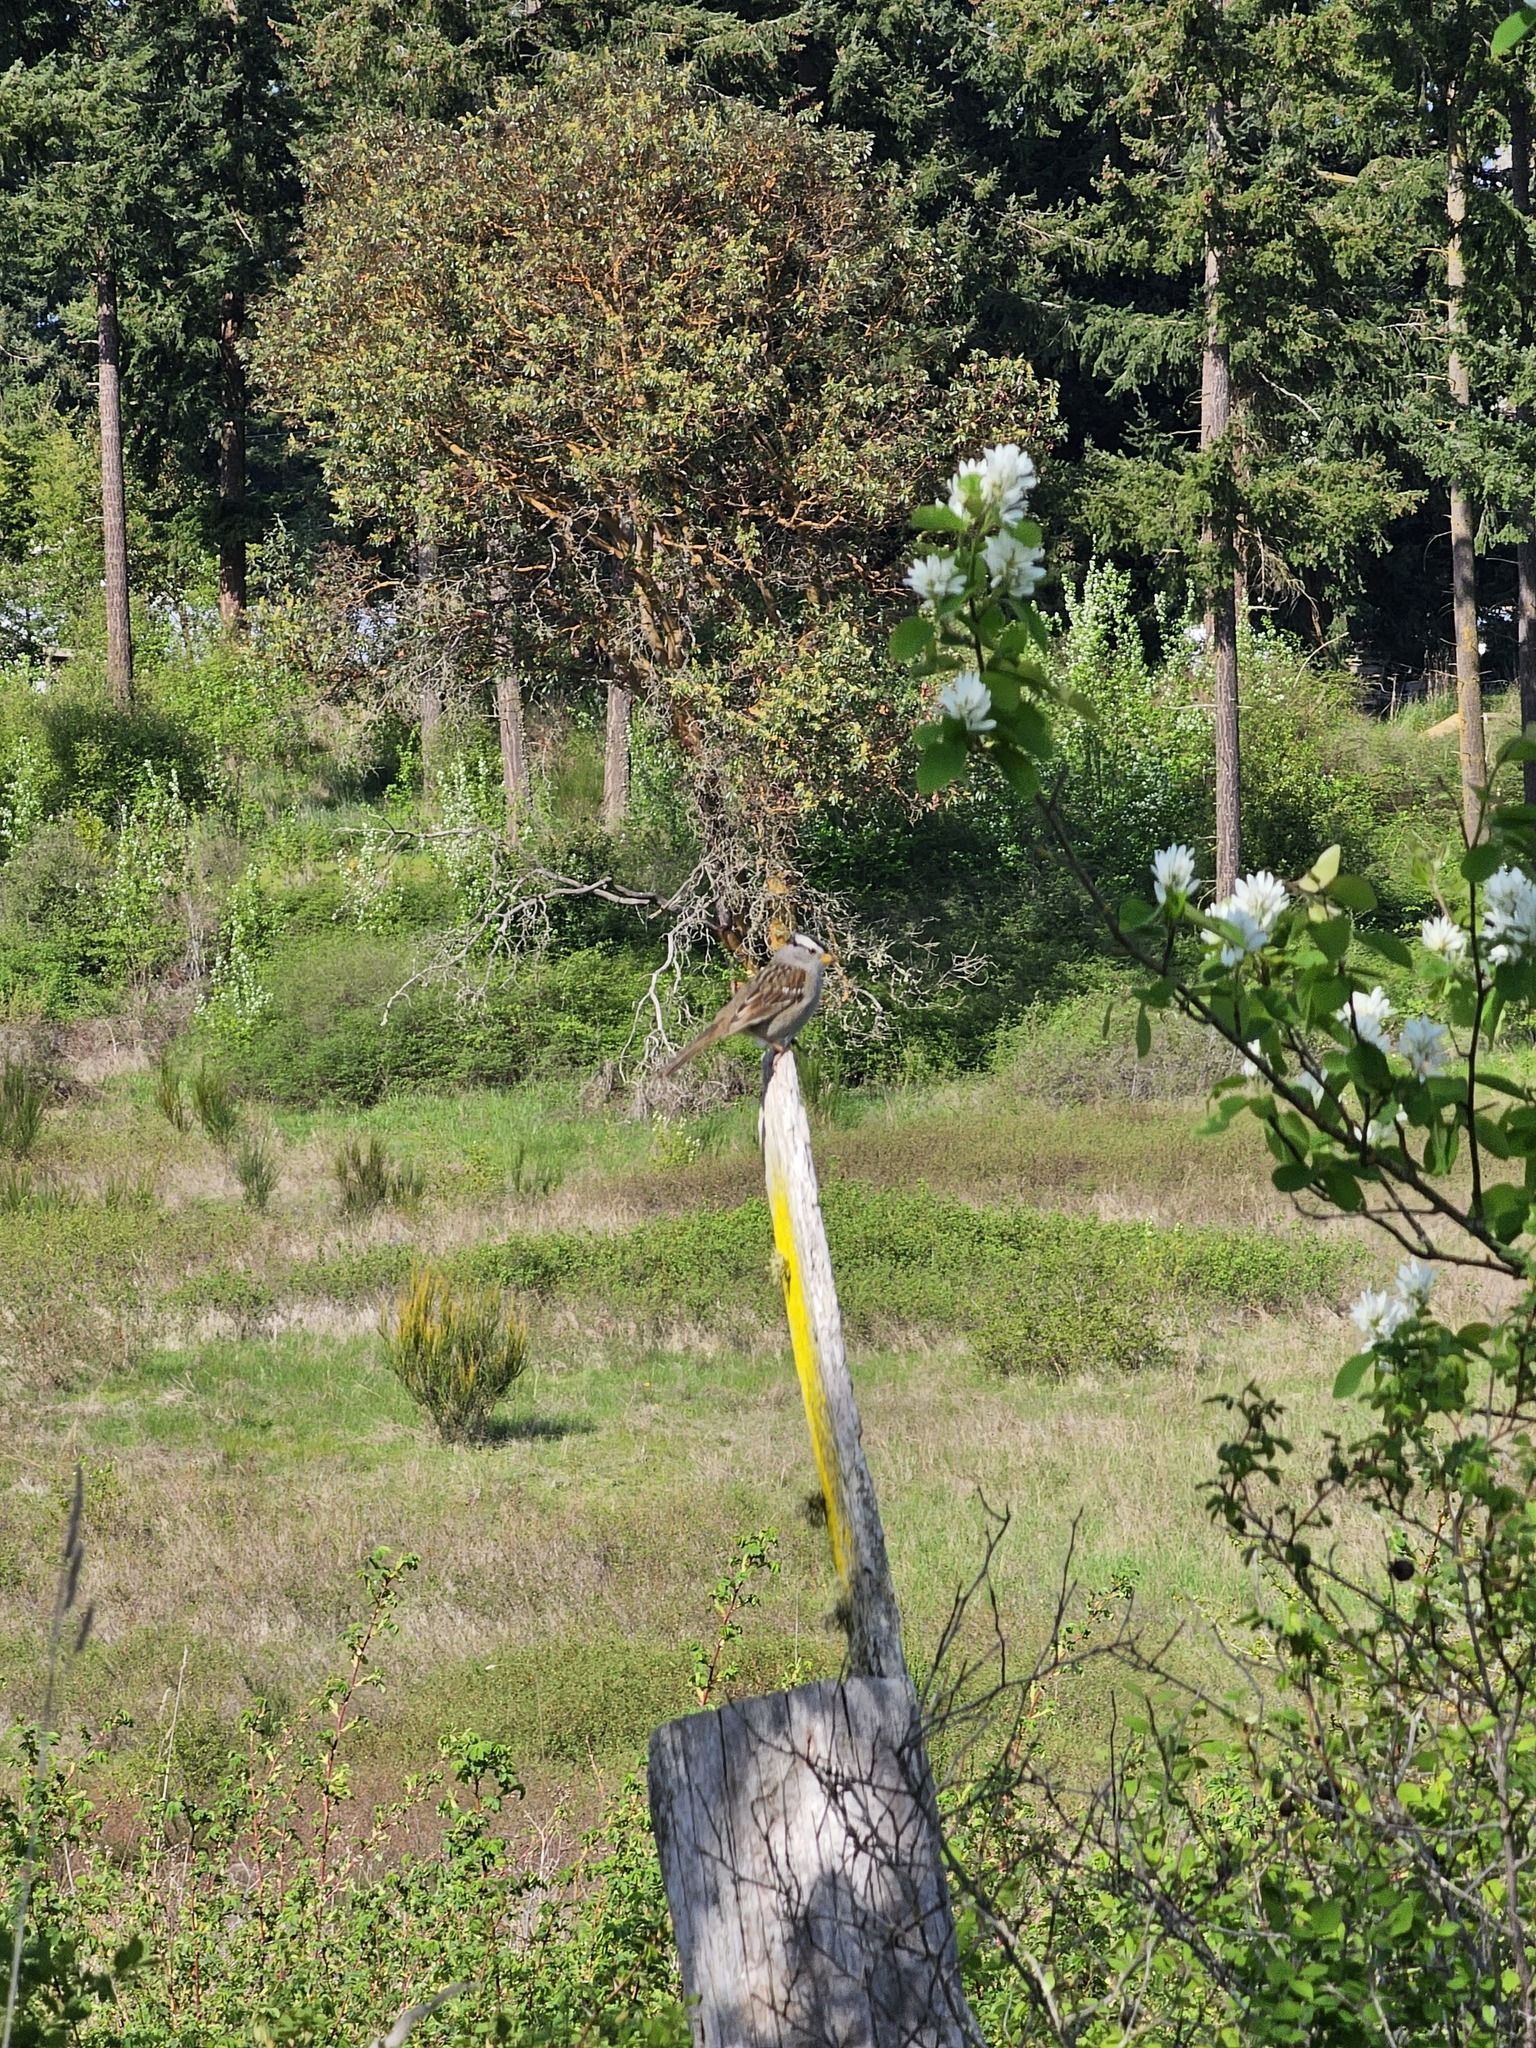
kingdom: Animalia
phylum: Chordata
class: Aves
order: Passeriformes
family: Passerellidae
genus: Zonotrichia
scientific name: Zonotrichia leucophrys
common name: White-crowned sparrow
